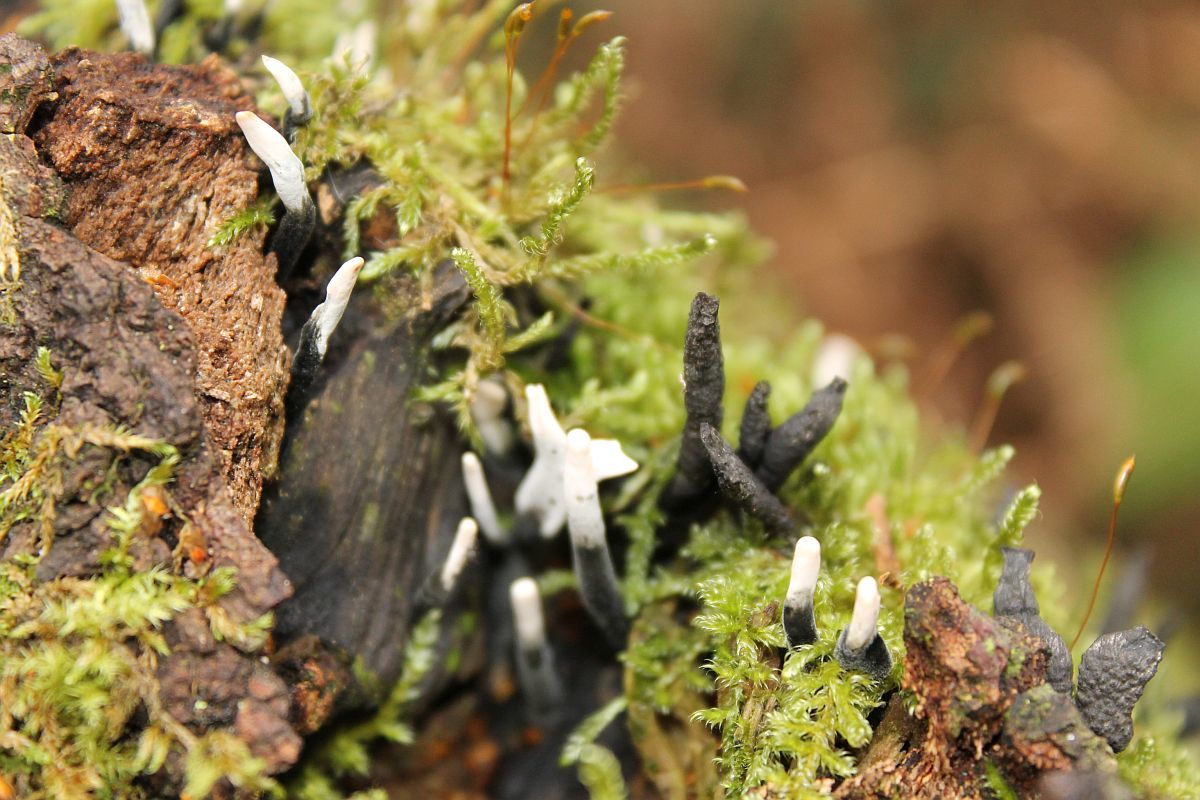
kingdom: Fungi
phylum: Ascomycota
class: Sordariomycetes
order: Xylariales
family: Xylariaceae
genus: Xylaria
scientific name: Xylaria hypoxylon
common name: Candle-snuff fungus
